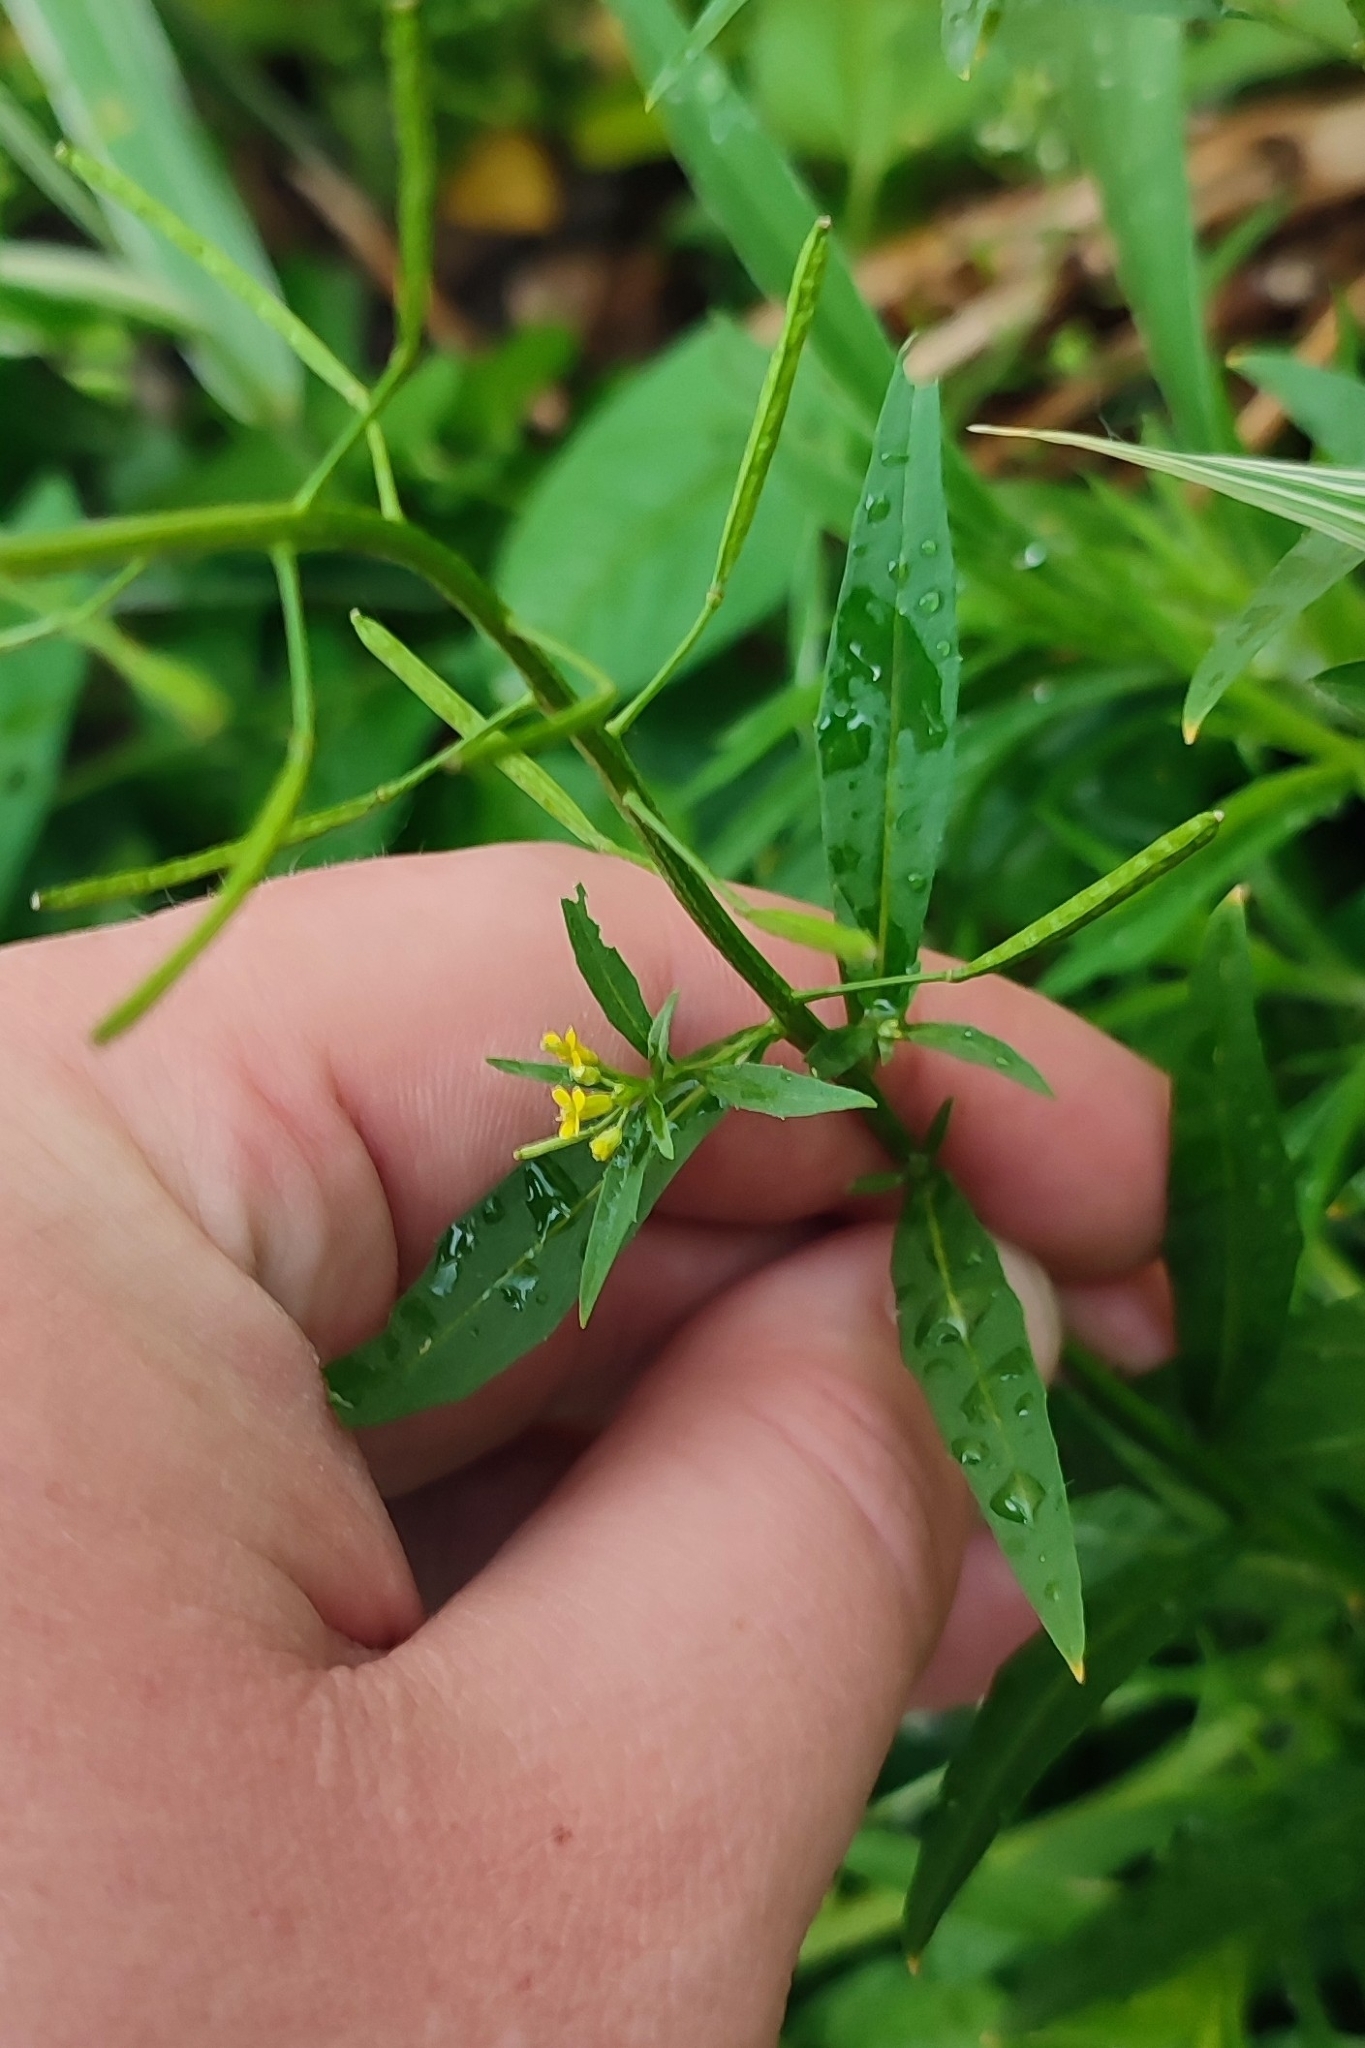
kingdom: Plantae
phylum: Tracheophyta
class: Magnoliopsida
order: Brassicales
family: Brassicaceae
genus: Erysimum
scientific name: Erysimum cheiranthoides
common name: Treacle mustard
